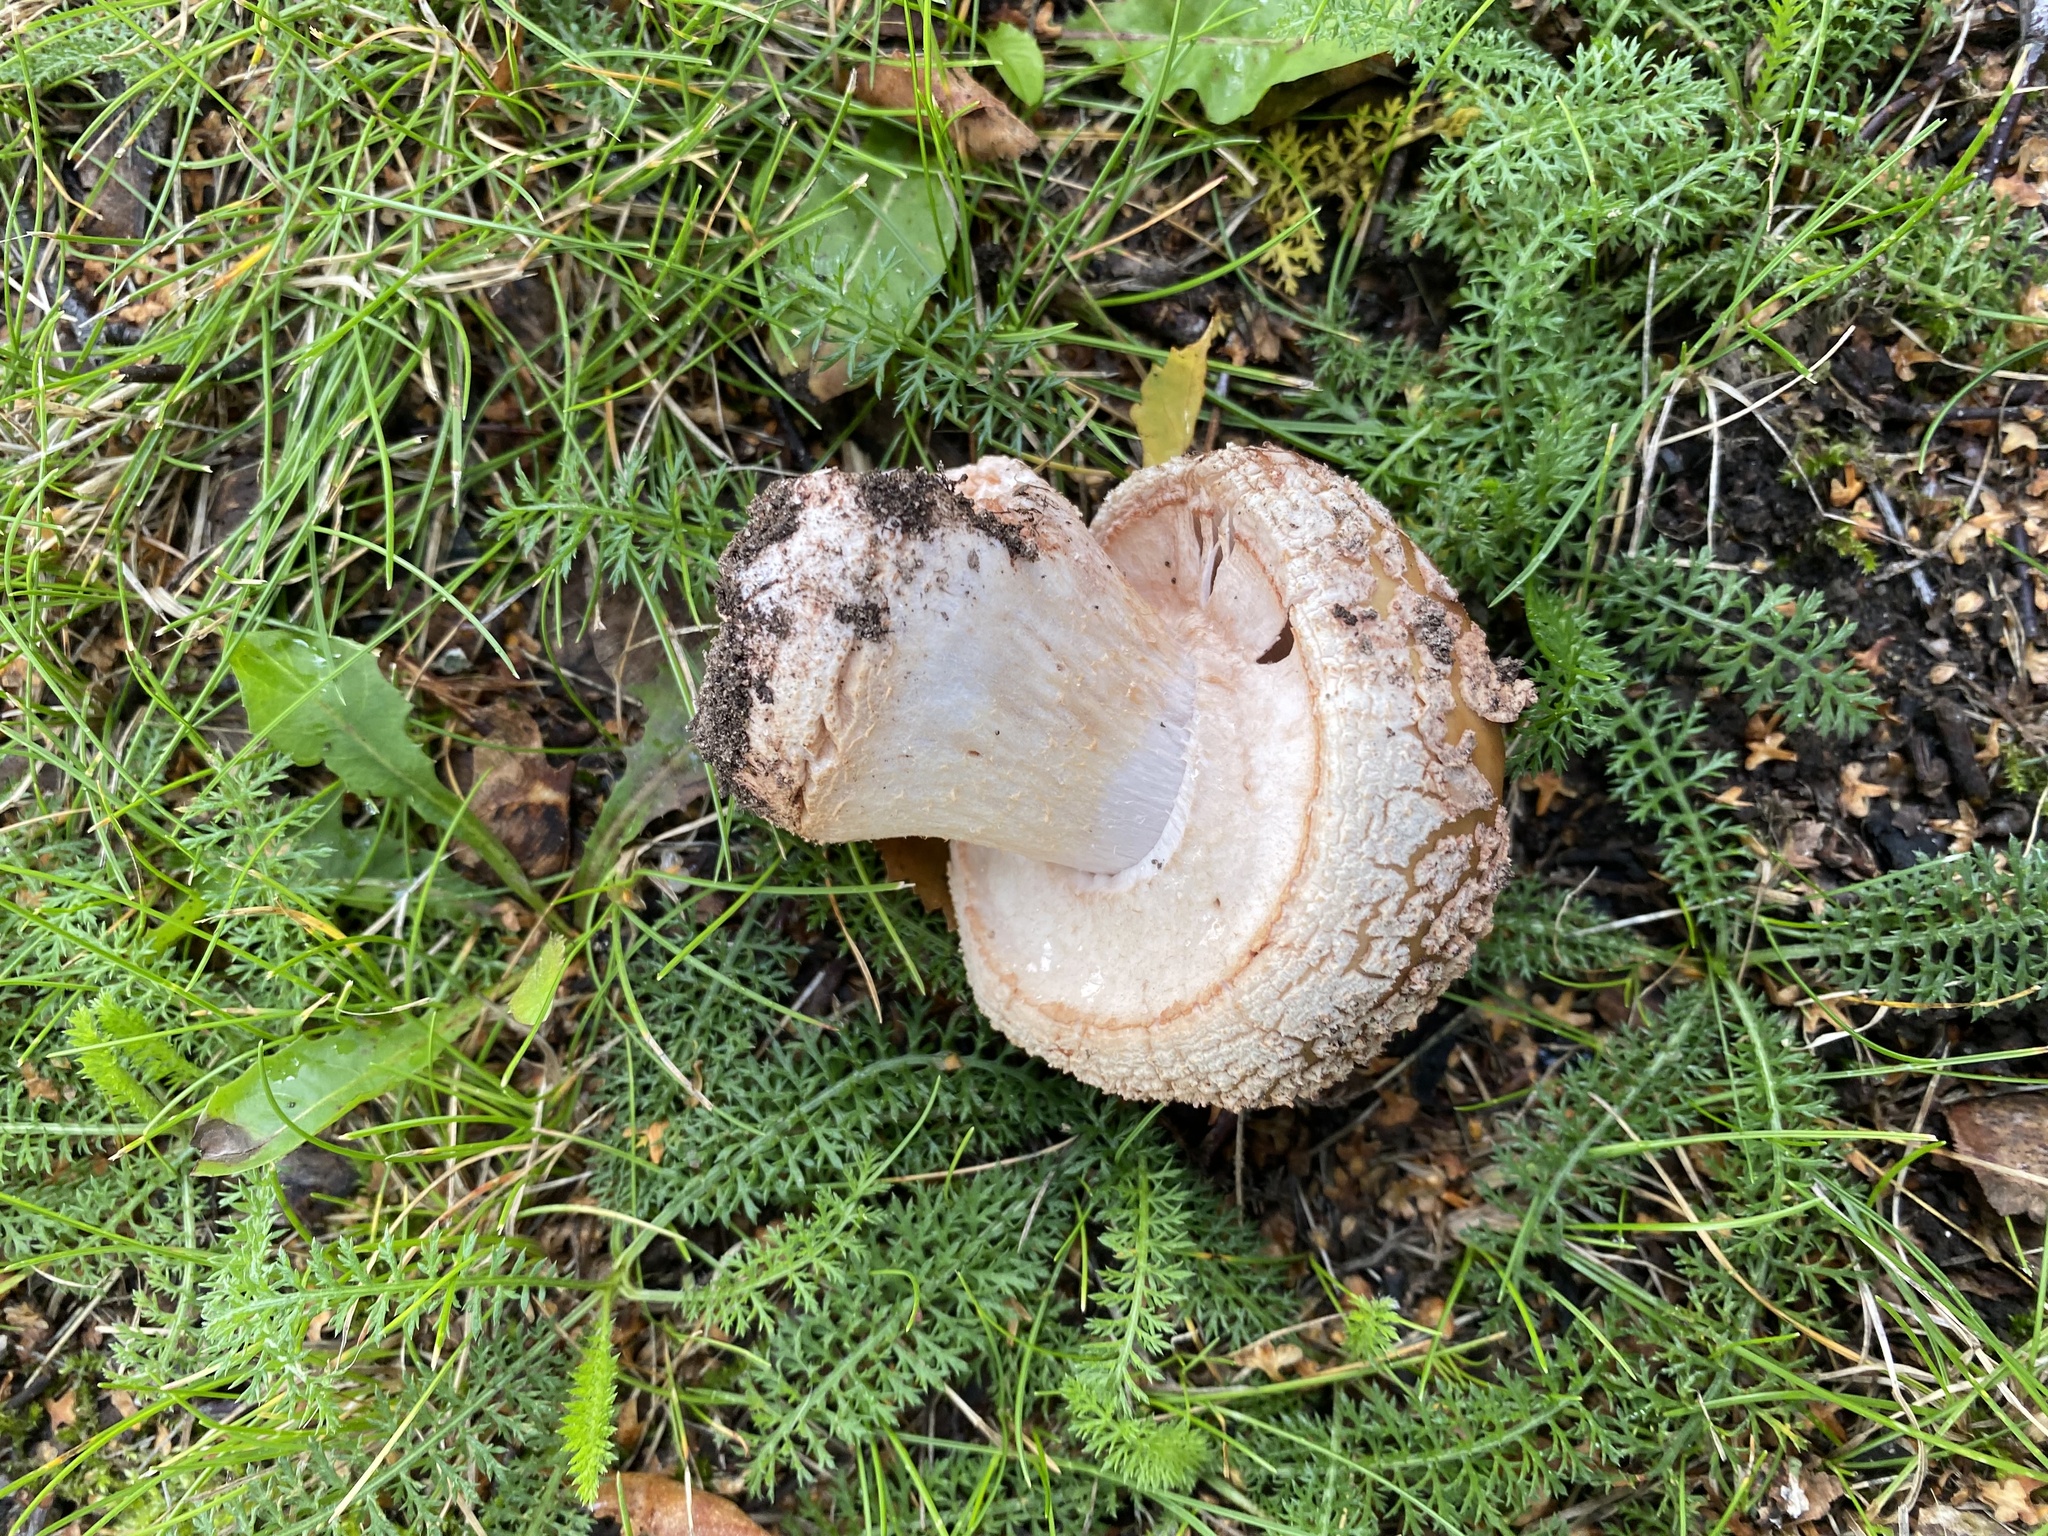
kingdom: Fungi
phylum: Basidiomycota
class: Agaricomycetes
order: Agaricales
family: Amanitaceae
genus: Amanita
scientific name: Amanita rubescens
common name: Blusher
